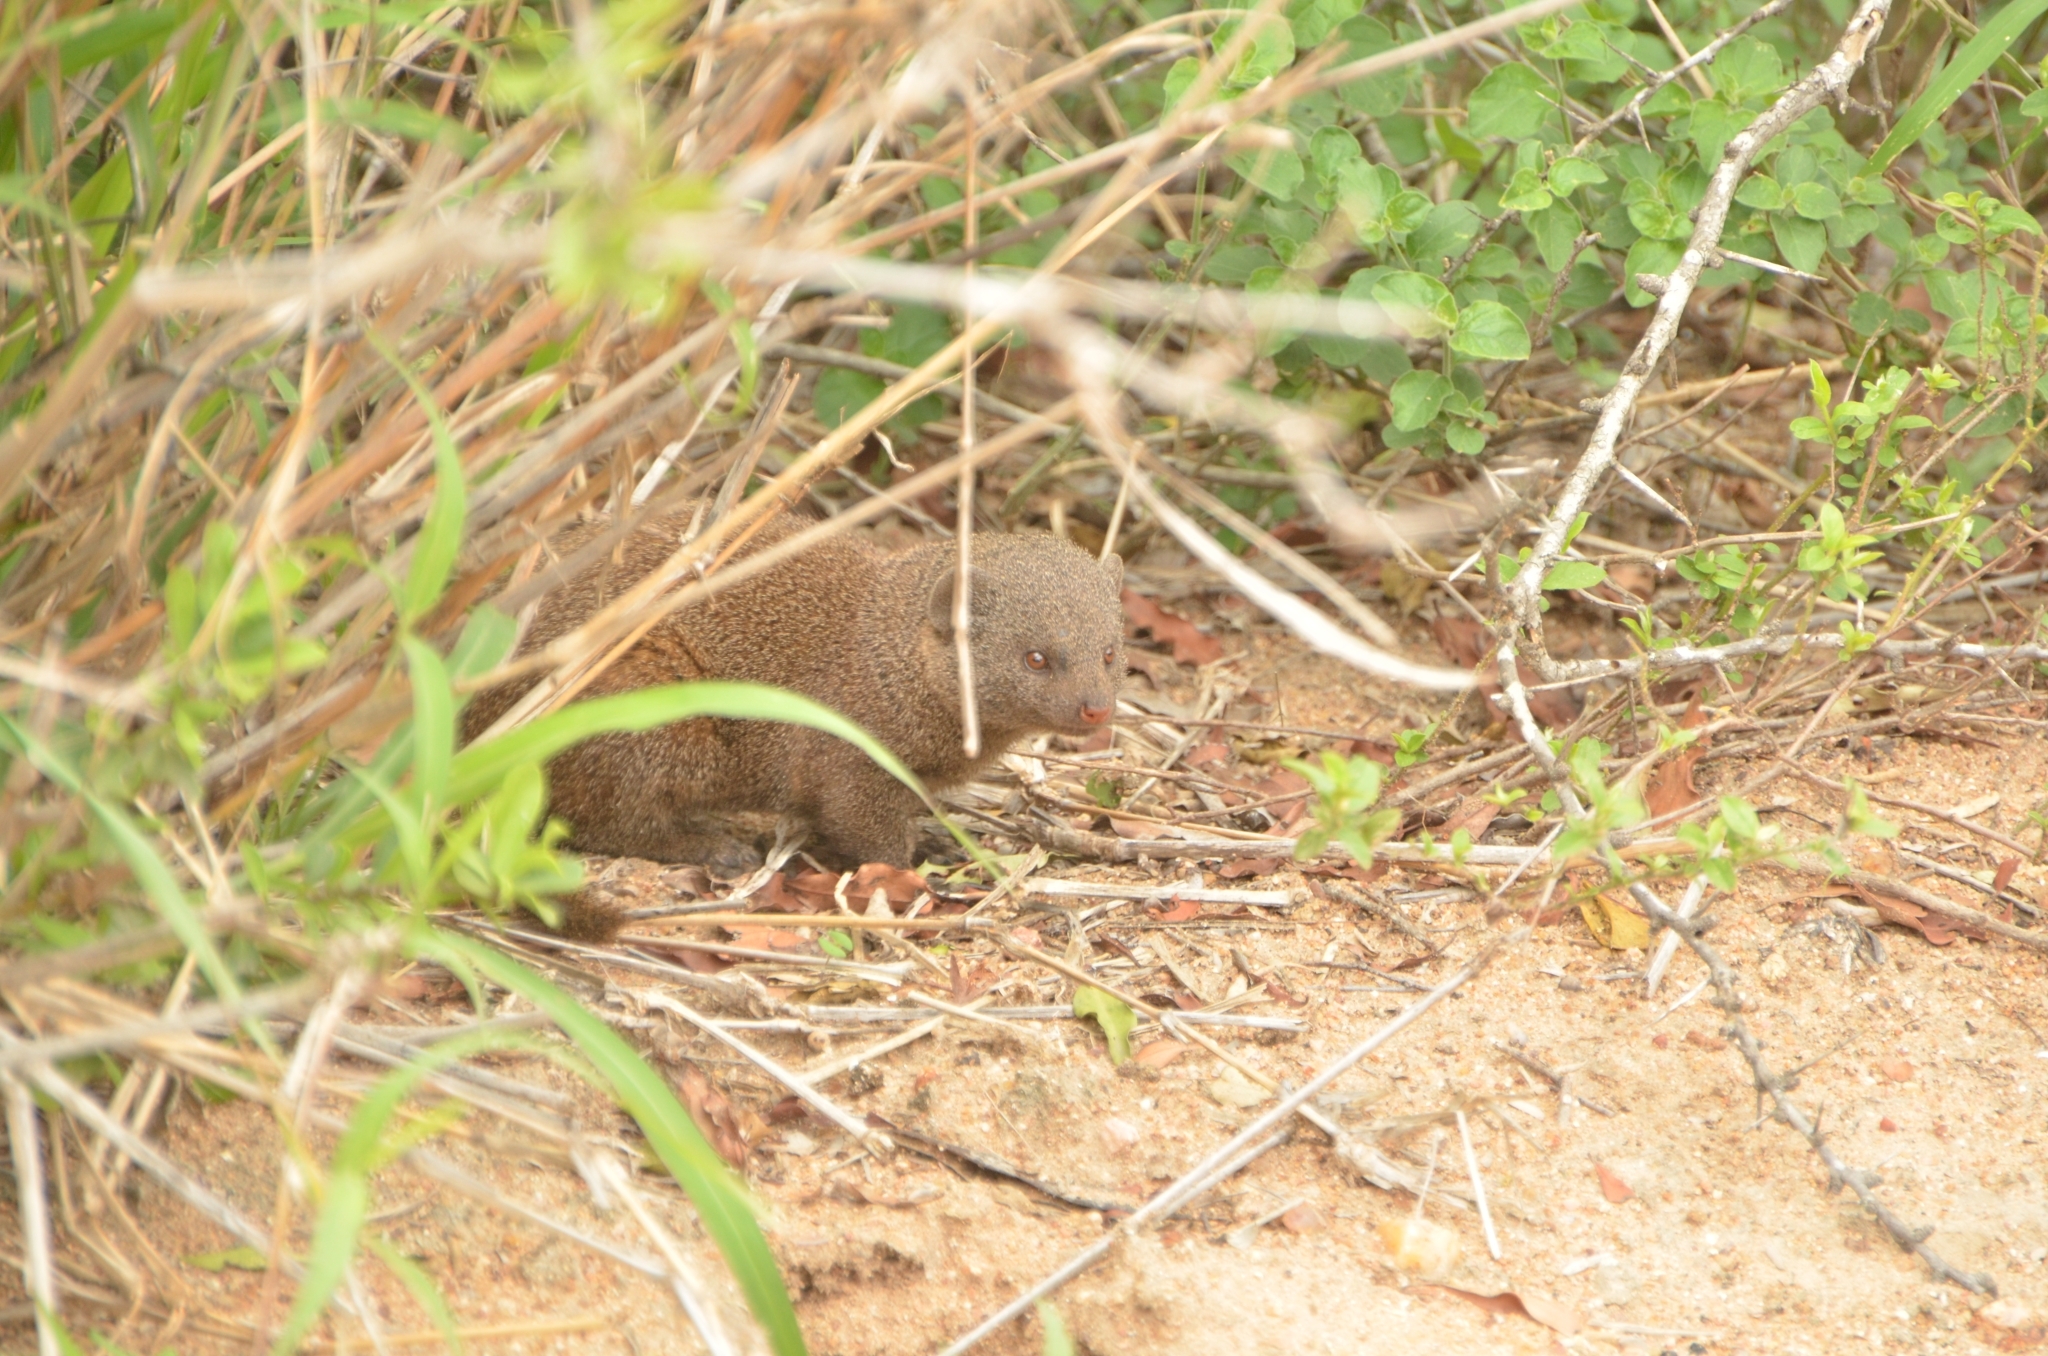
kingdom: Animalia
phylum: Chordata
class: Mammalia
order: Carnivora
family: Herpestidae
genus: Helogale
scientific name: Helogale parvula
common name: Common dwarf mongoose
